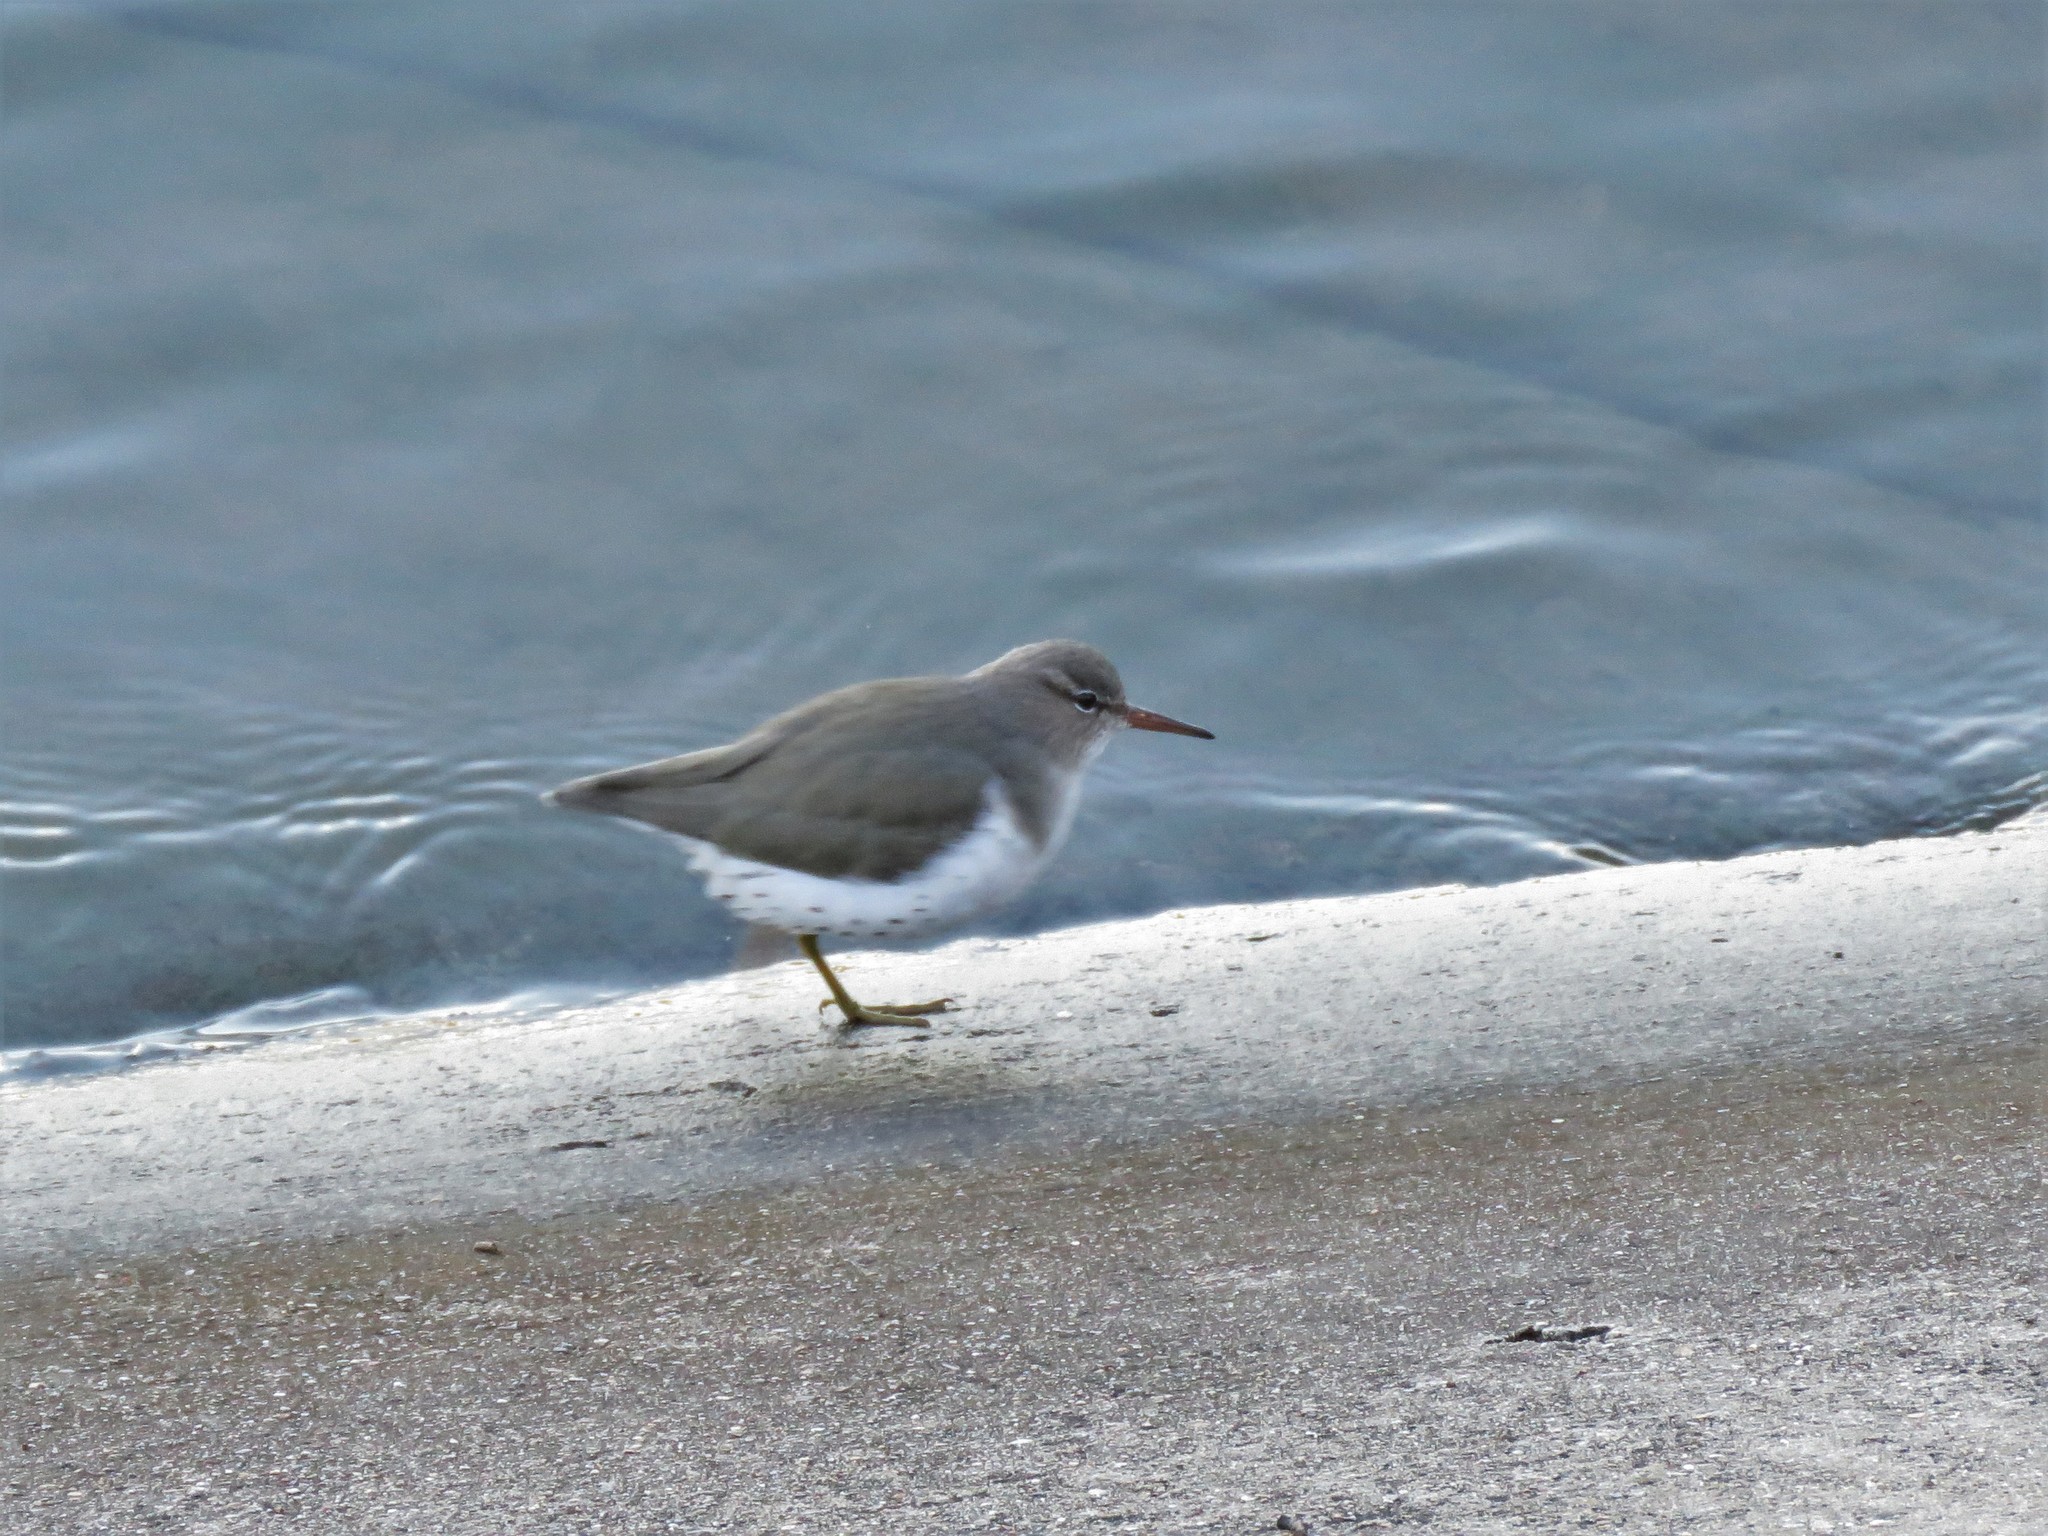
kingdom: Animalia
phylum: Chordata
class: Aves
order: Charadriiformes
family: Scolopacidae
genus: Actitis
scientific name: Actitis macularius
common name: Spotted sandpiper
